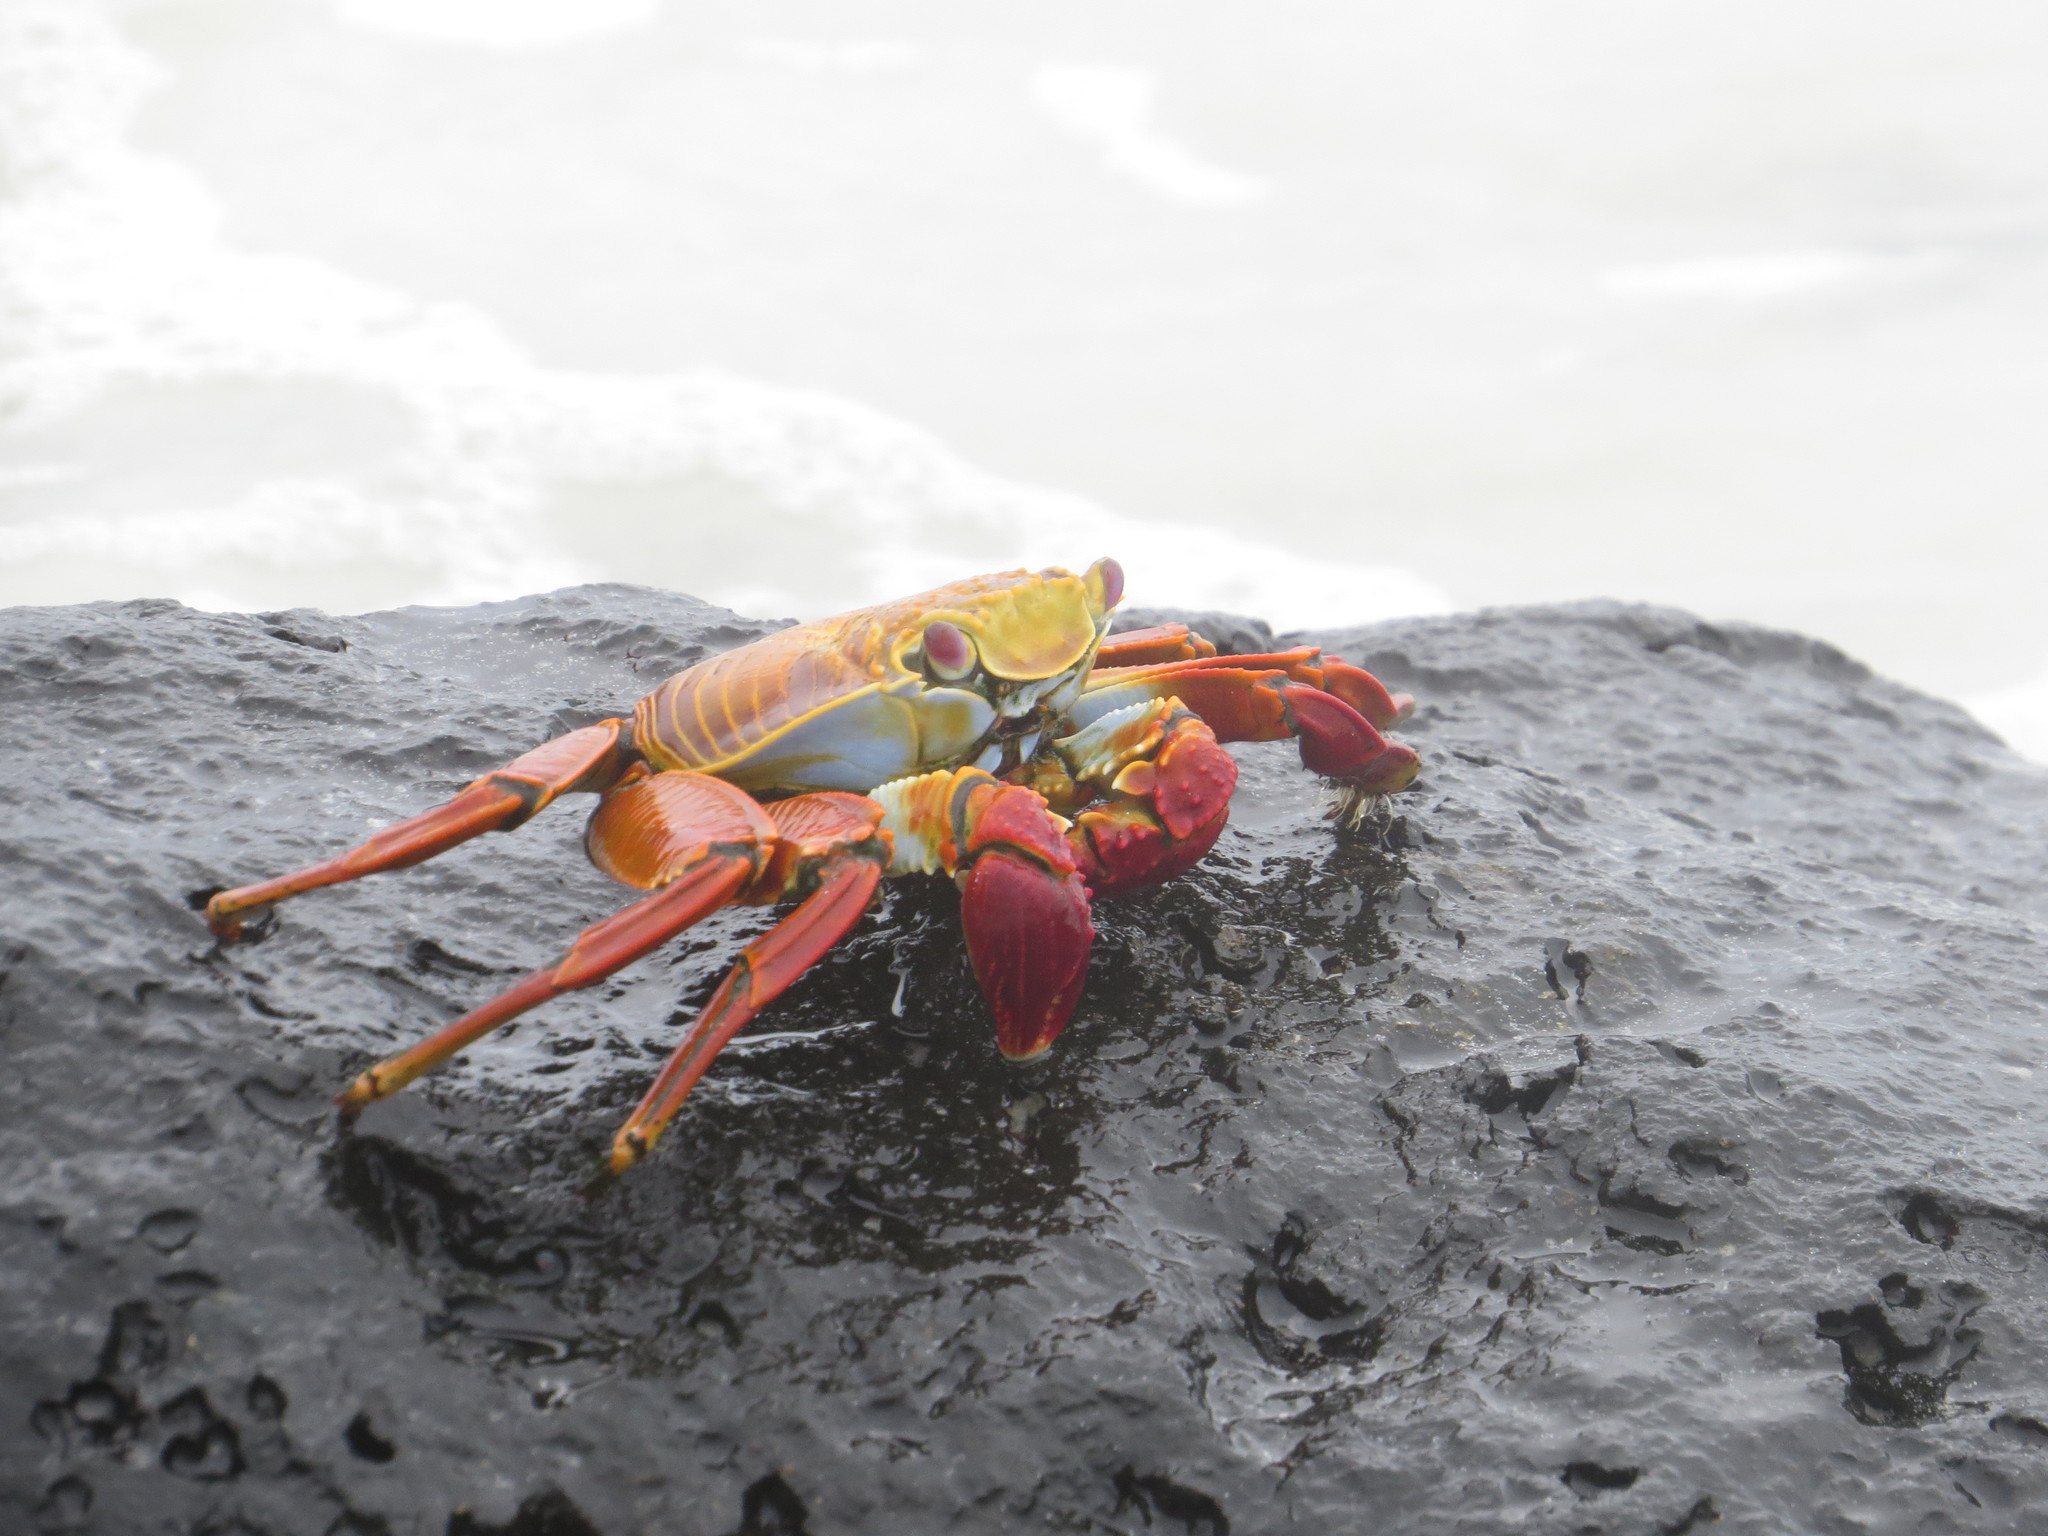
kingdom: Animalia
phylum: Arthropoda
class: Malacostraca
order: Decapoda
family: Grapsidae
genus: Grapsus
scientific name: Grapsus grapsus
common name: Sally lightfoot
